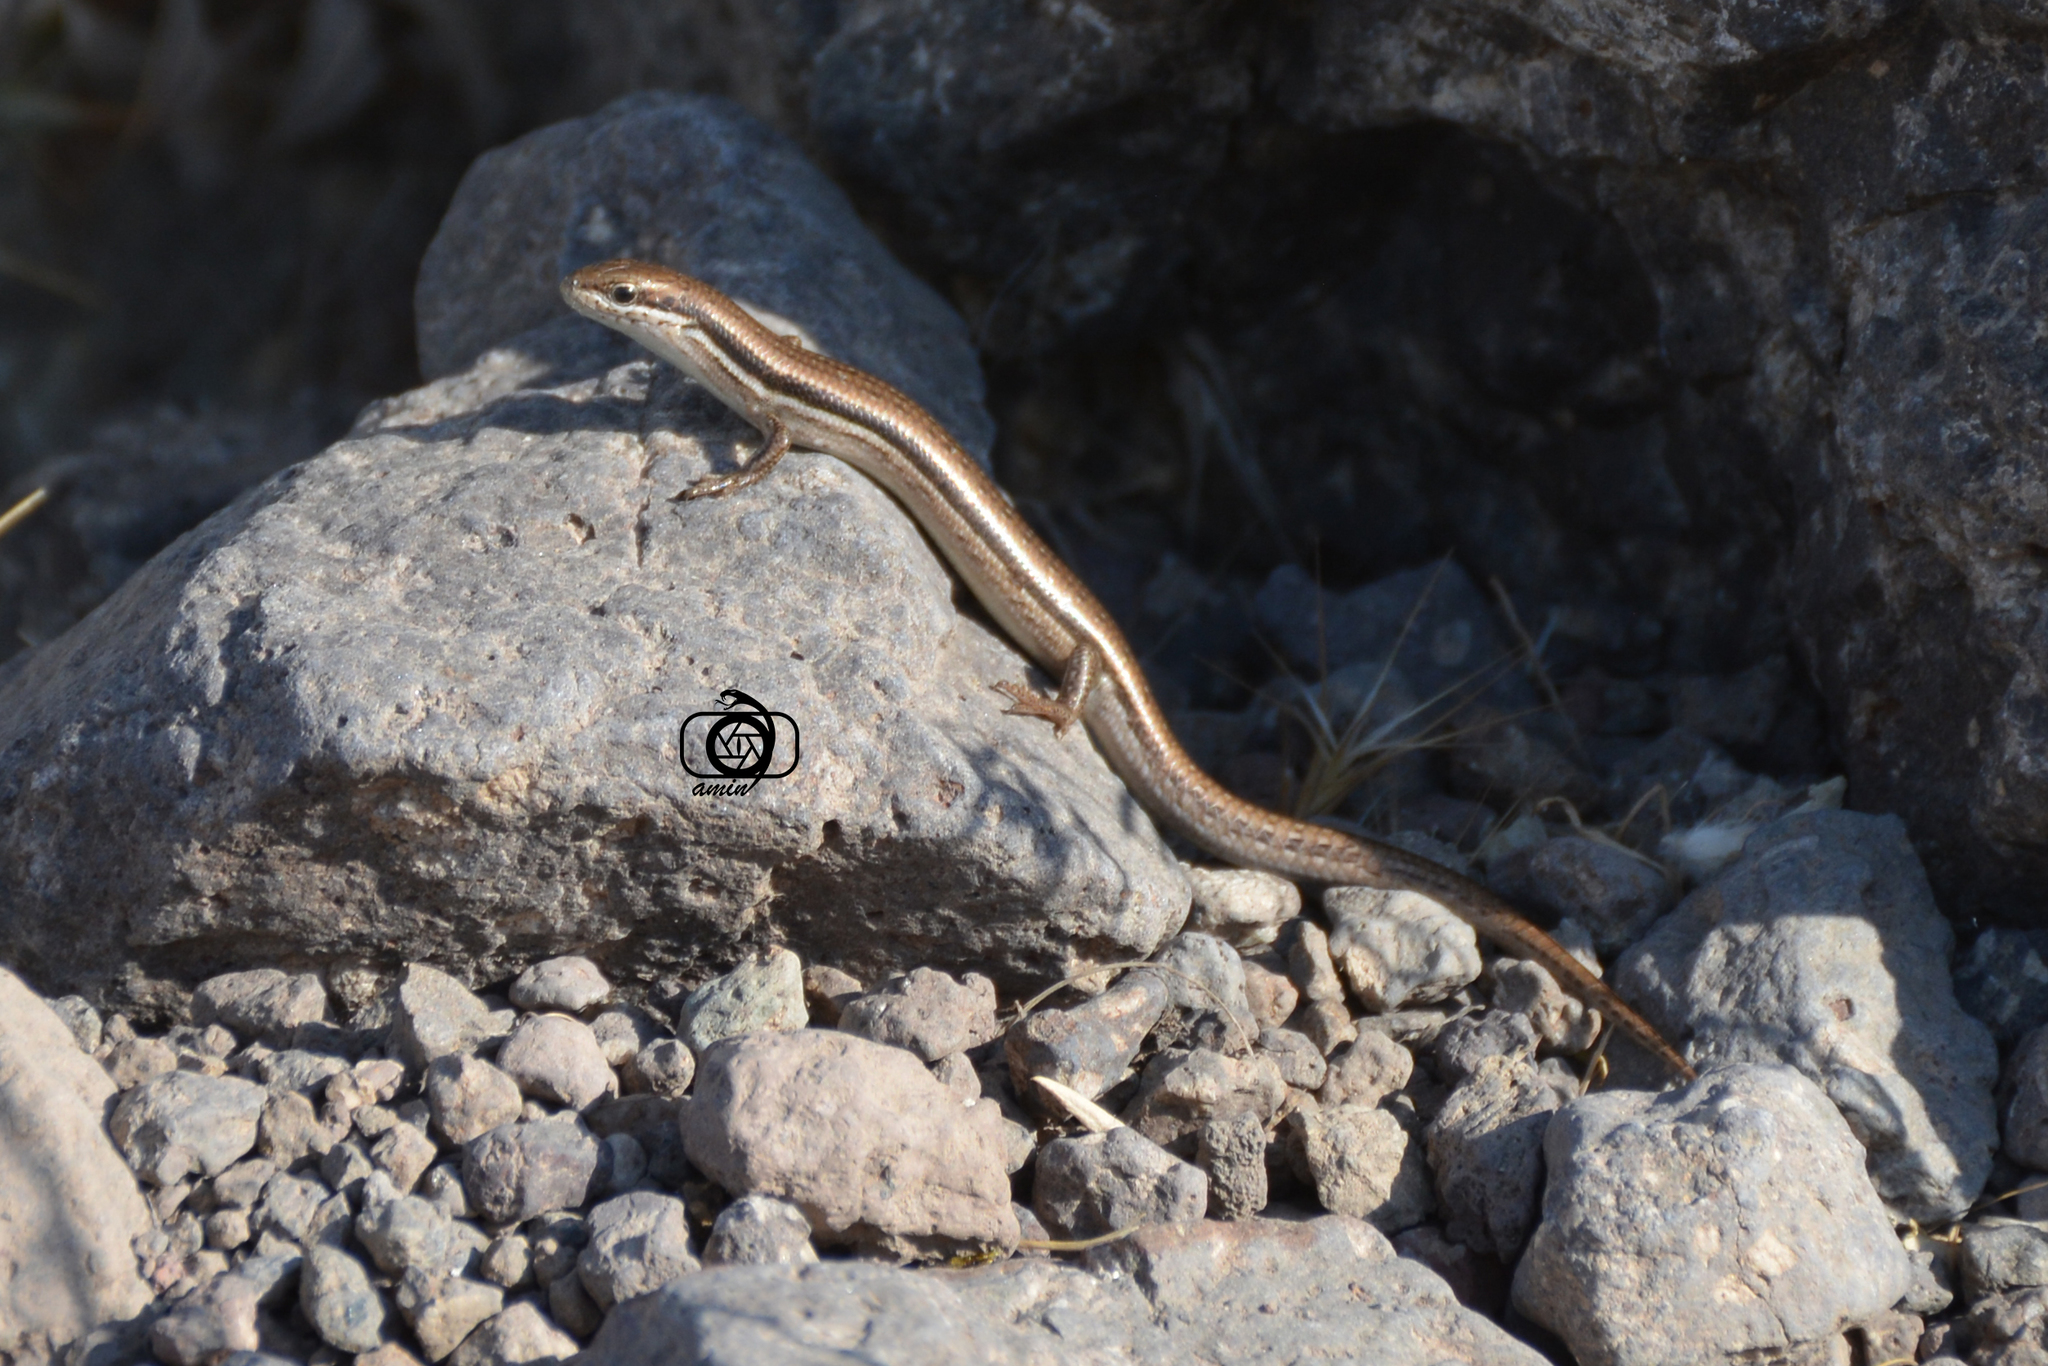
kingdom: Animalia
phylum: Chordata
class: Squamata
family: Scincidae
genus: Ablepharus
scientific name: Ablepharus bivittatus
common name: Twin-striped skink
